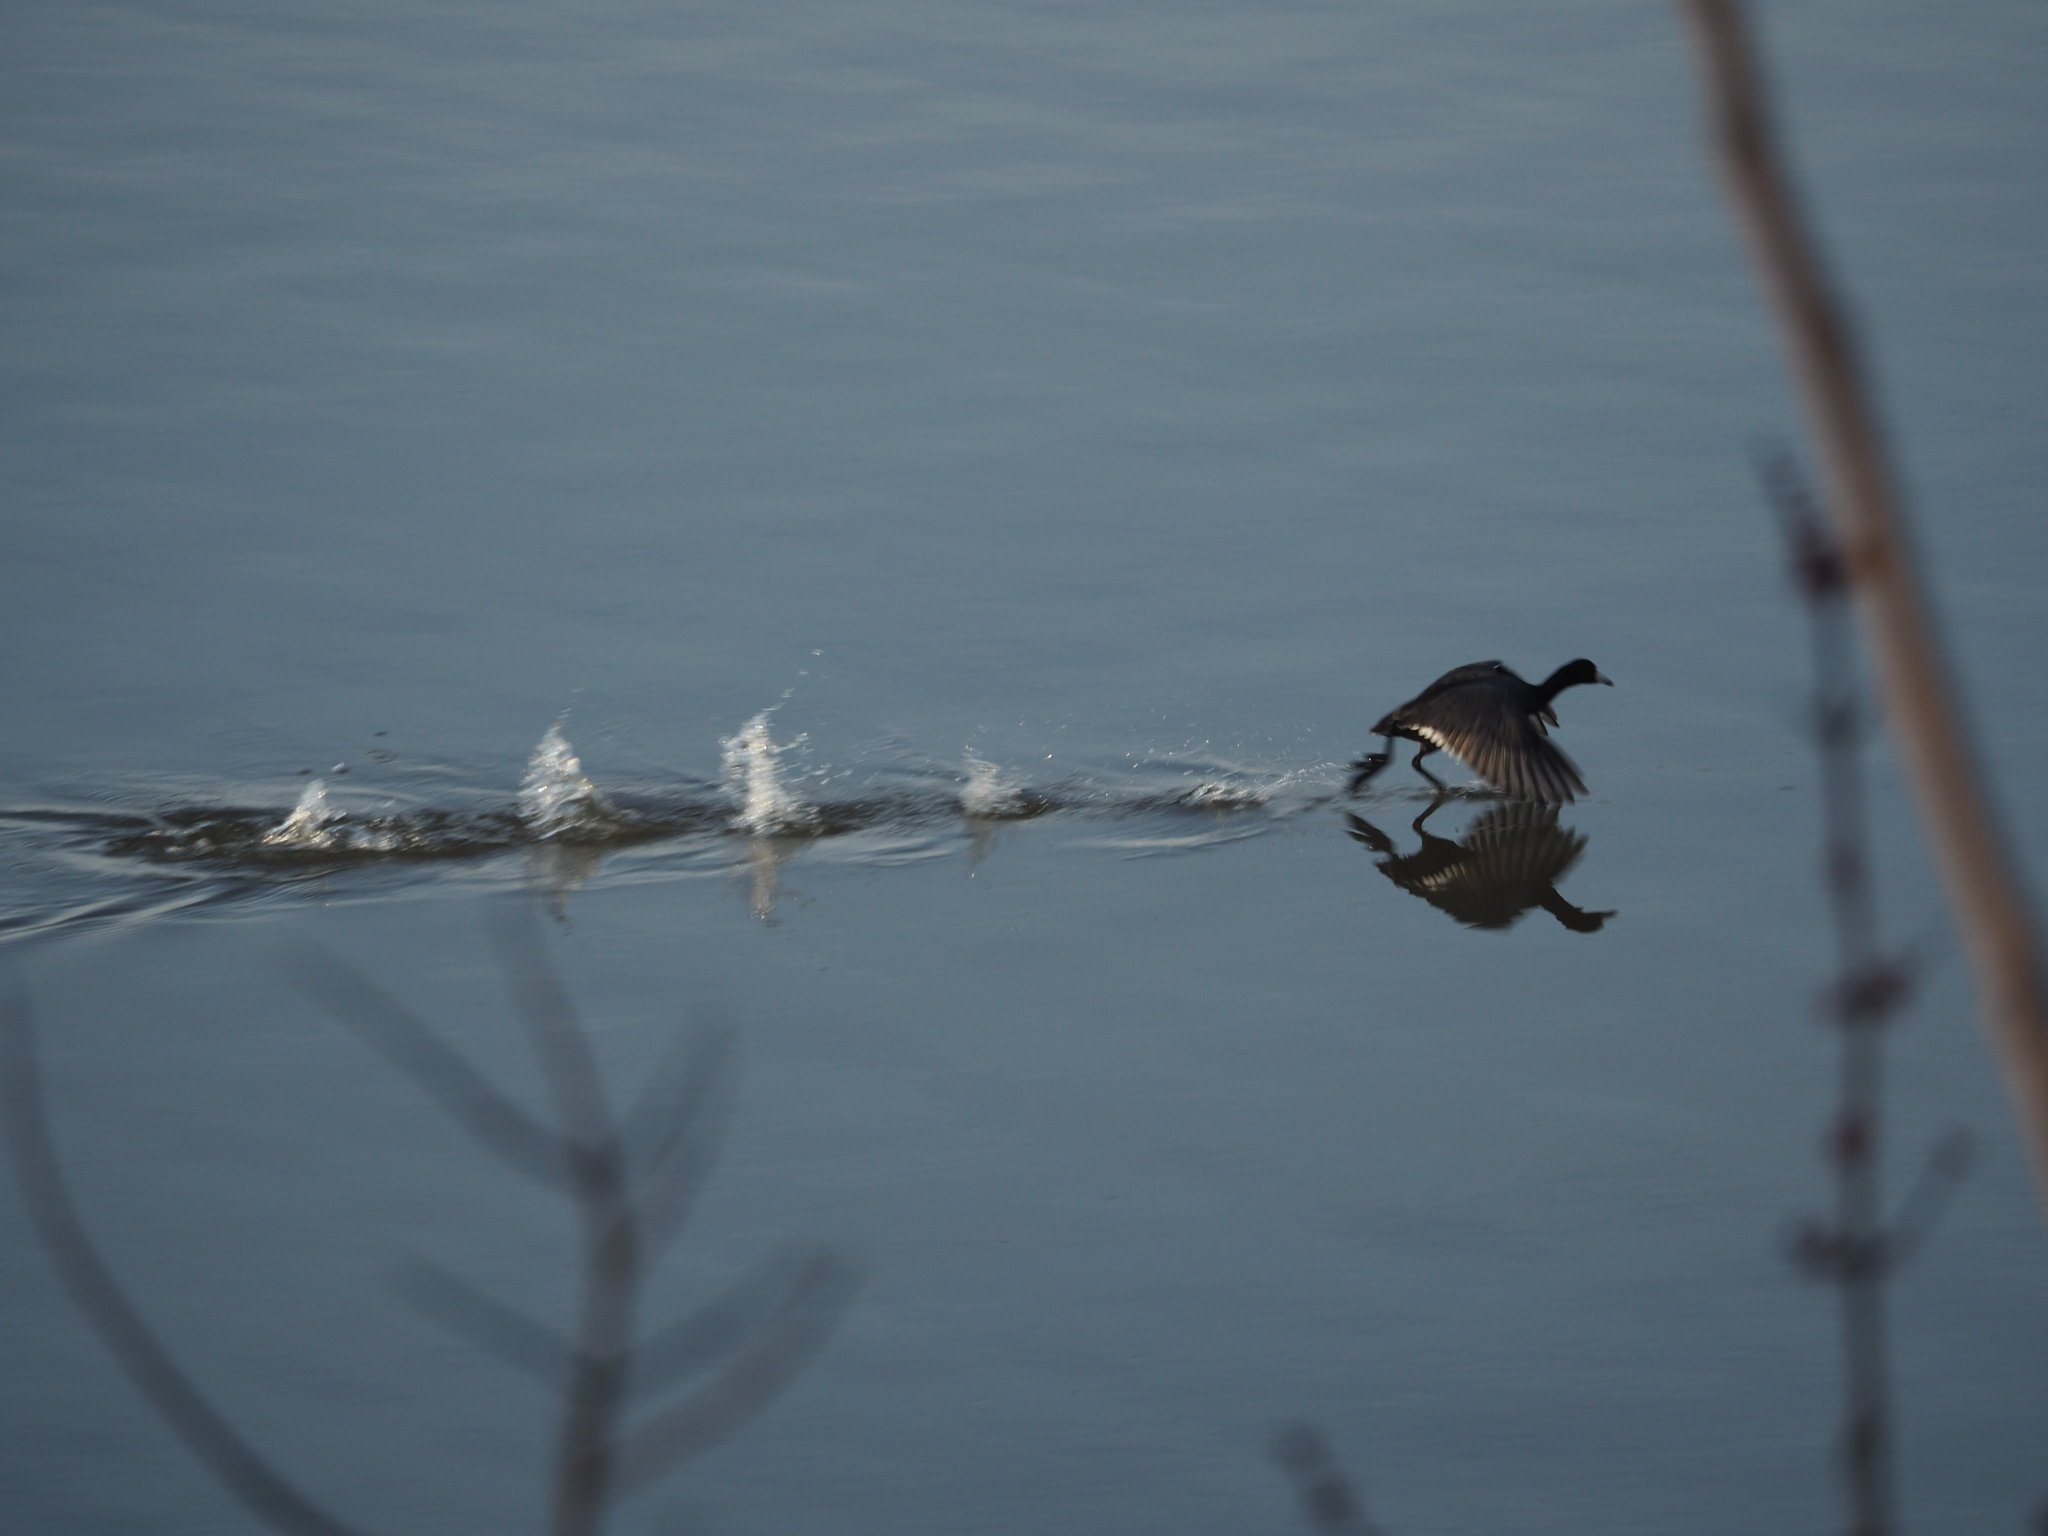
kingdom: Animalia
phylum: Chordata
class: Aves
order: Gruiformes
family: Rallidae
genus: Fulica
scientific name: Fulica americana
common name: American coot
